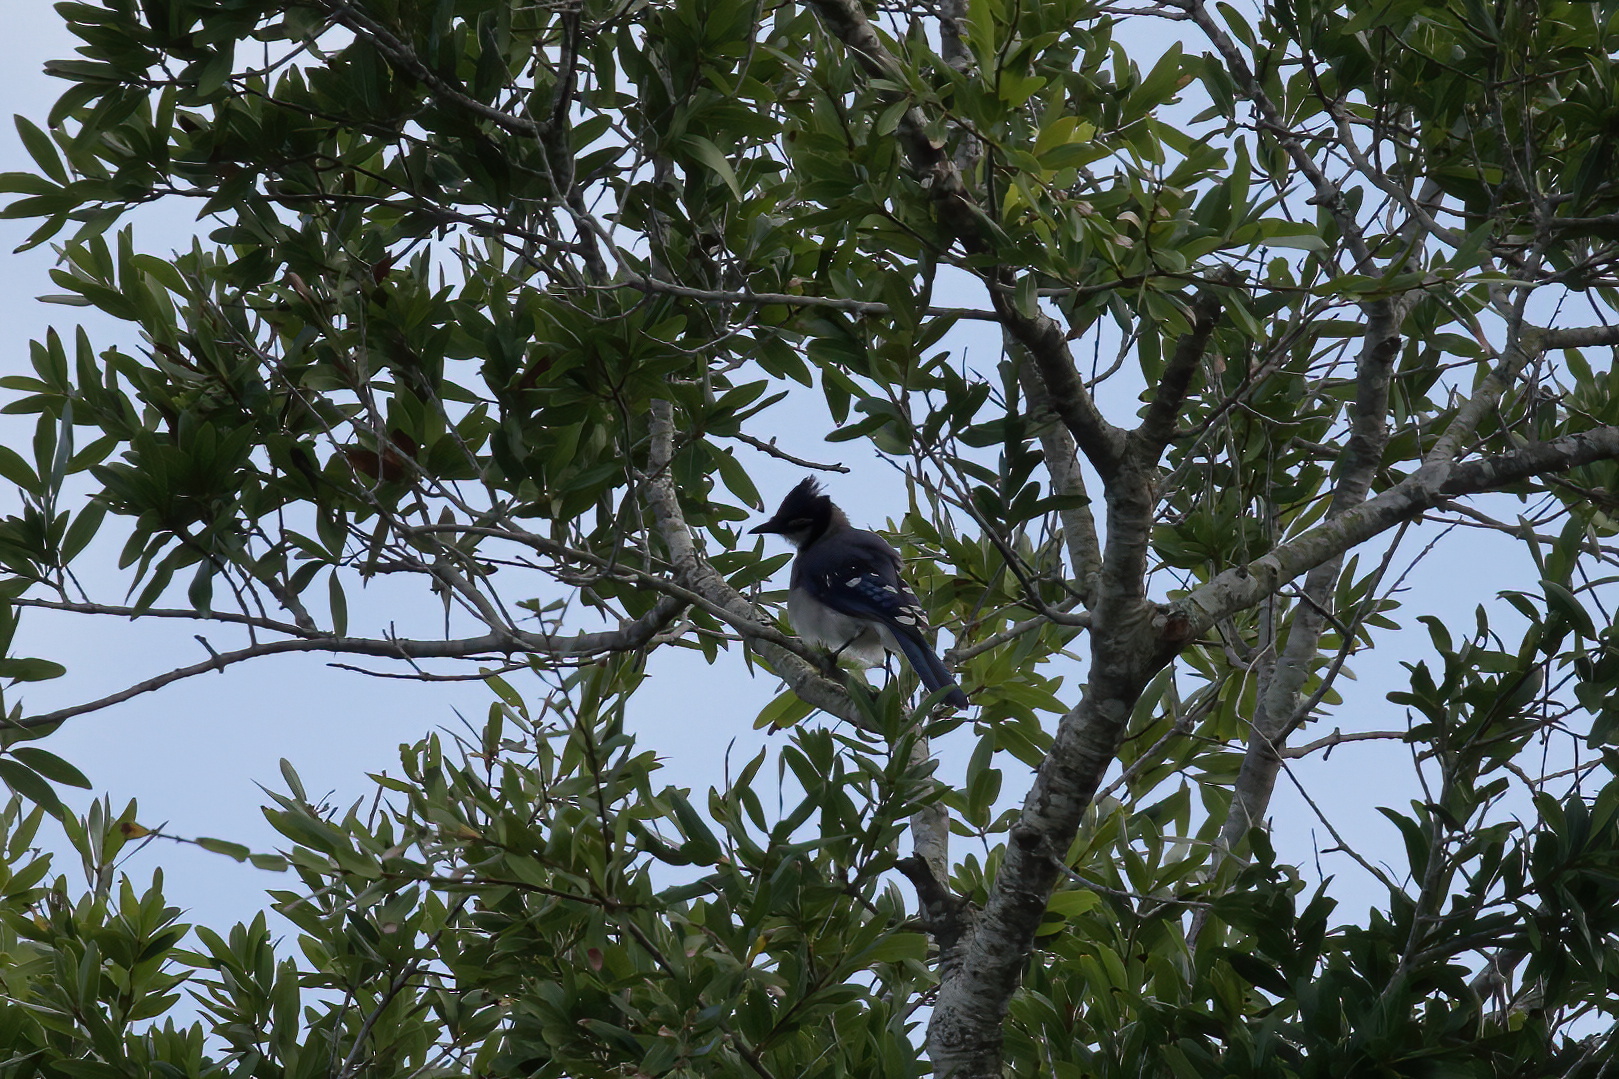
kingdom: Animalia
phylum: Chordata
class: Aves
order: Passeriformes
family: Corvidae
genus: Cyanocitta
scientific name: Cyanocitta cristata
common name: Blue jay
